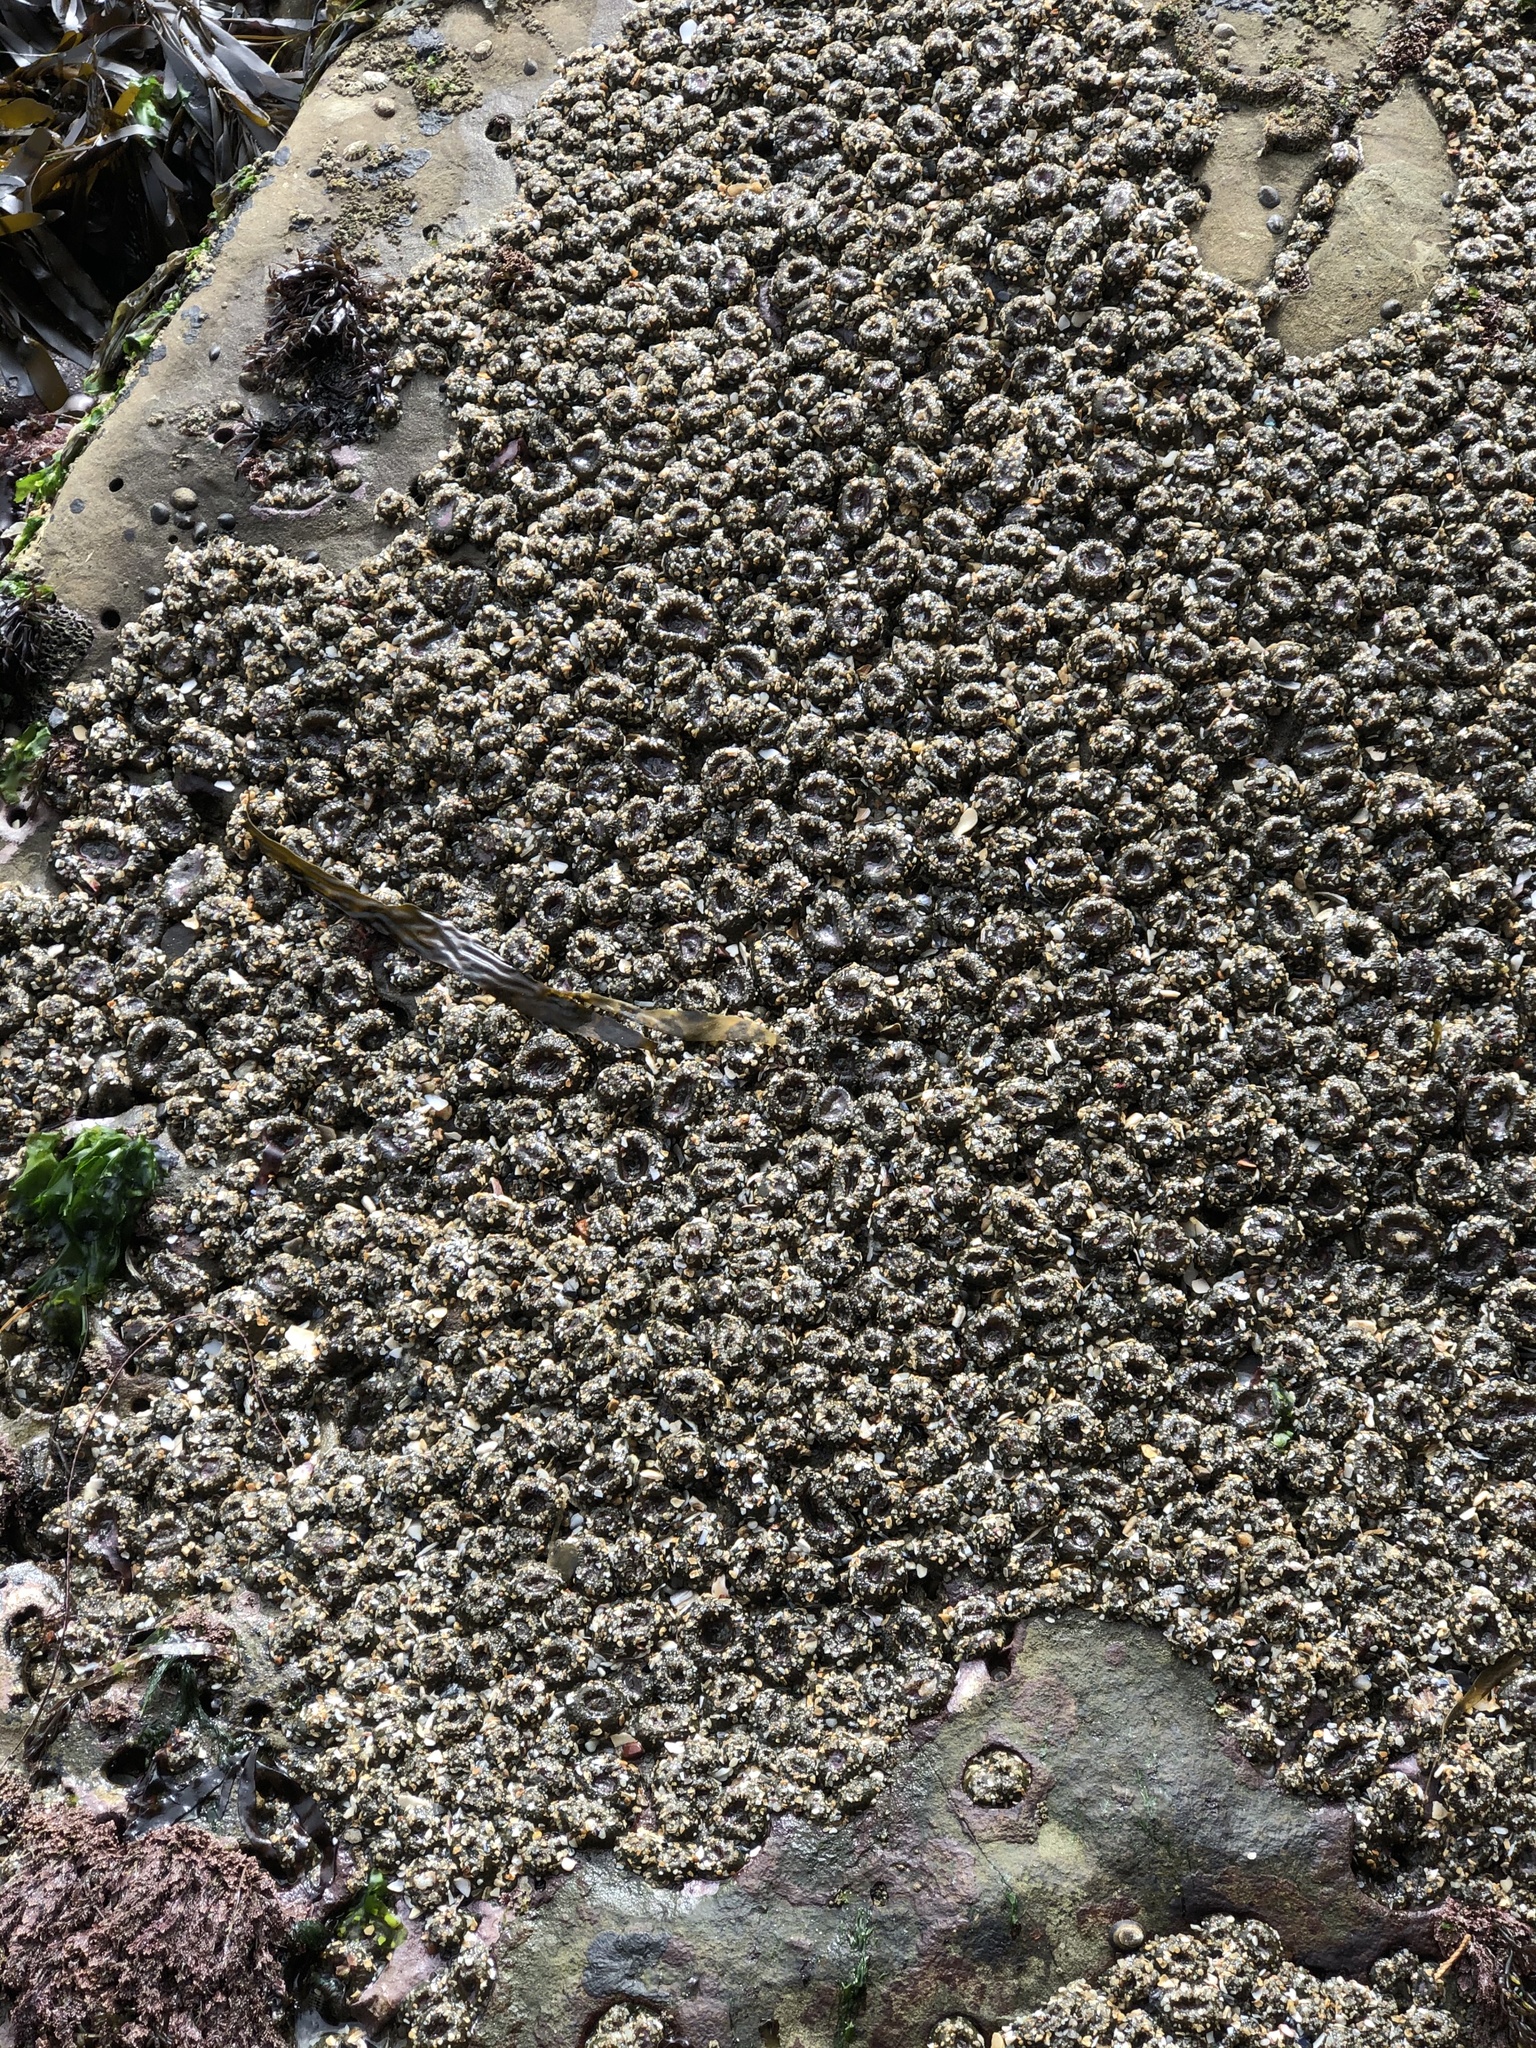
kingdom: Animalia
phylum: Cnidaria
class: Anthozoa
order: Actiniaria
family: Actiniidae
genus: Anthopleura
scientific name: Anthopleura elegantissima
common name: Clonal anemone
